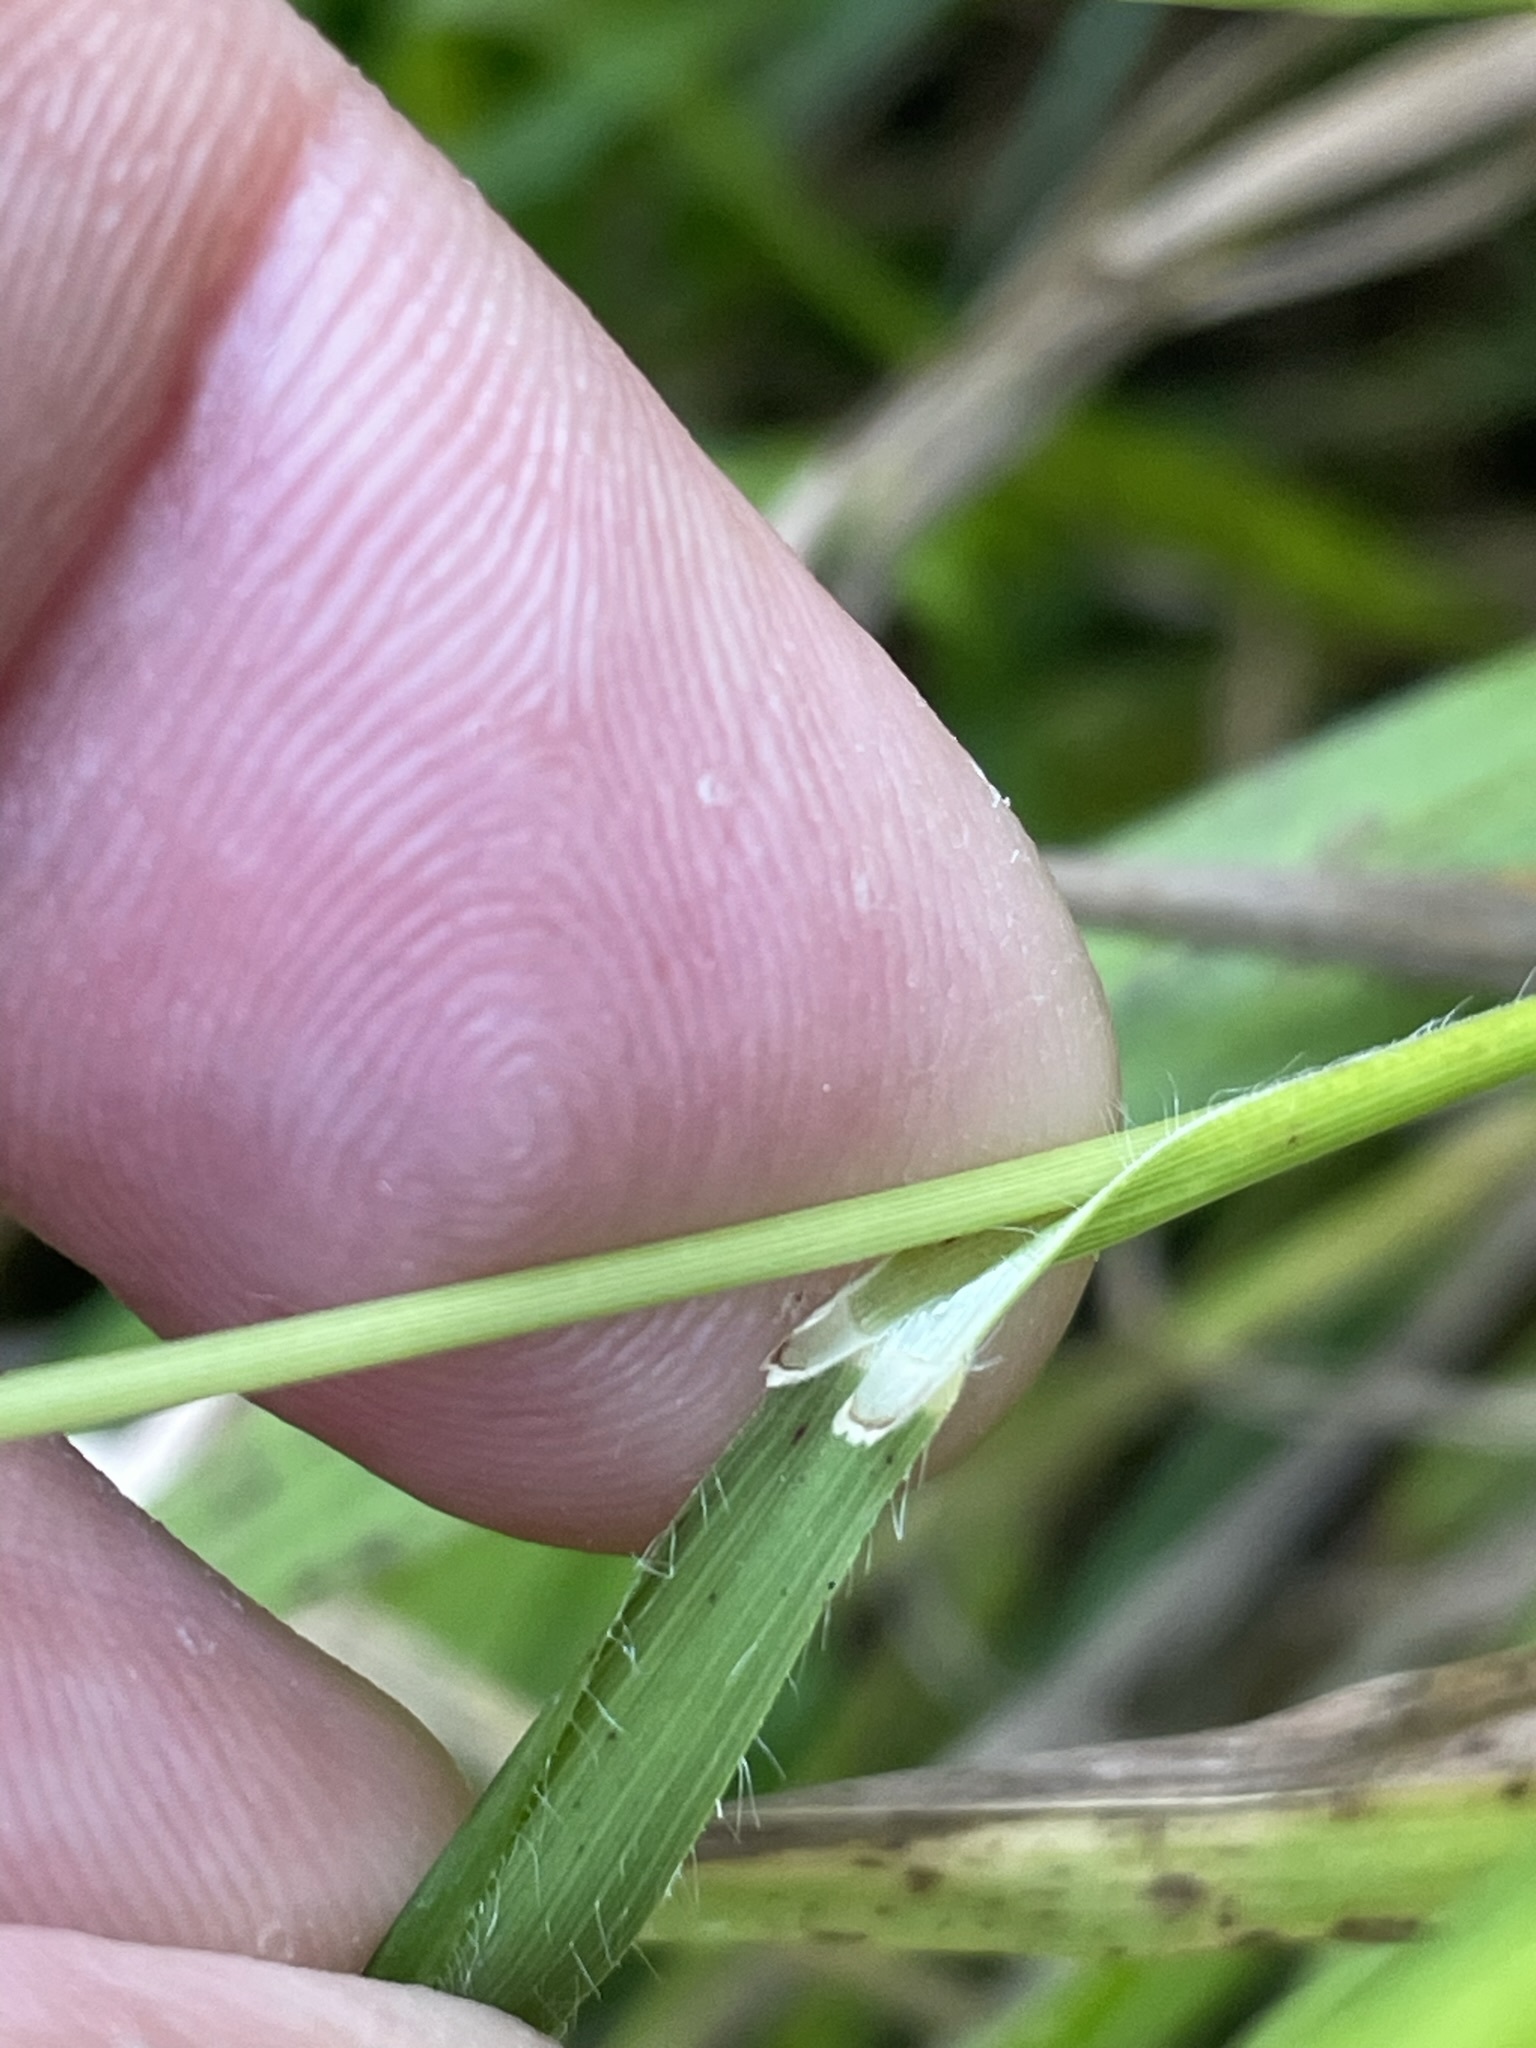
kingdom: Plantae
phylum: Tracheophyta
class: Liliopsida
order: Poales
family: Poaceae
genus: Phleum
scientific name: Phleum pratense
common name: Timothy grass
